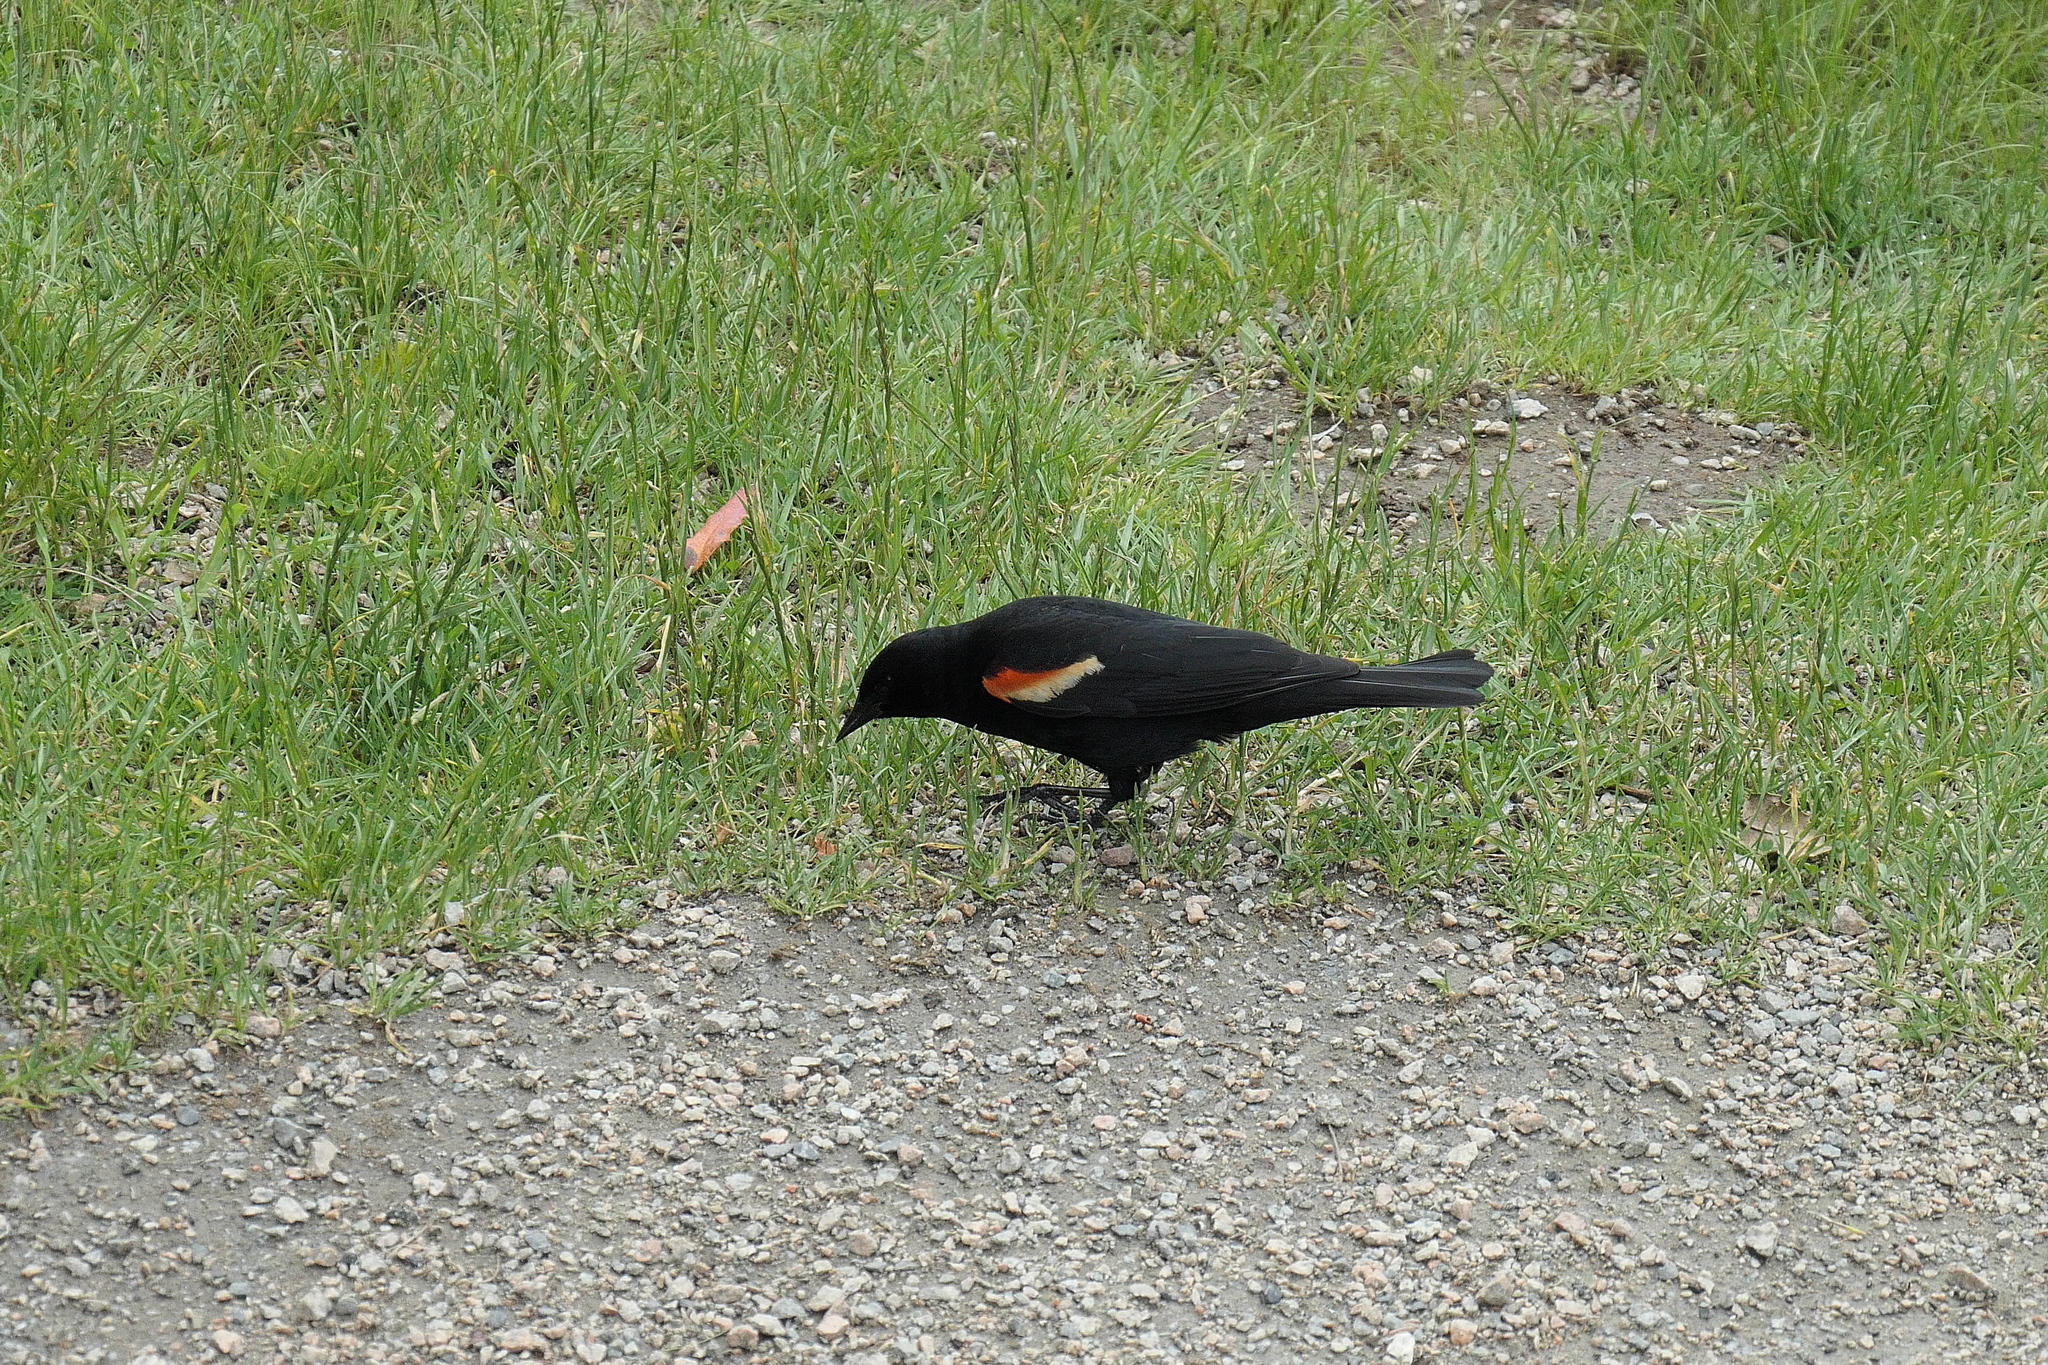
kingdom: Animalia
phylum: Chordata
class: Aves
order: Passeriformes
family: Icteridae
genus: Agelaius
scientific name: Agelaius phoeniceus
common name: Red-winged blackbird
